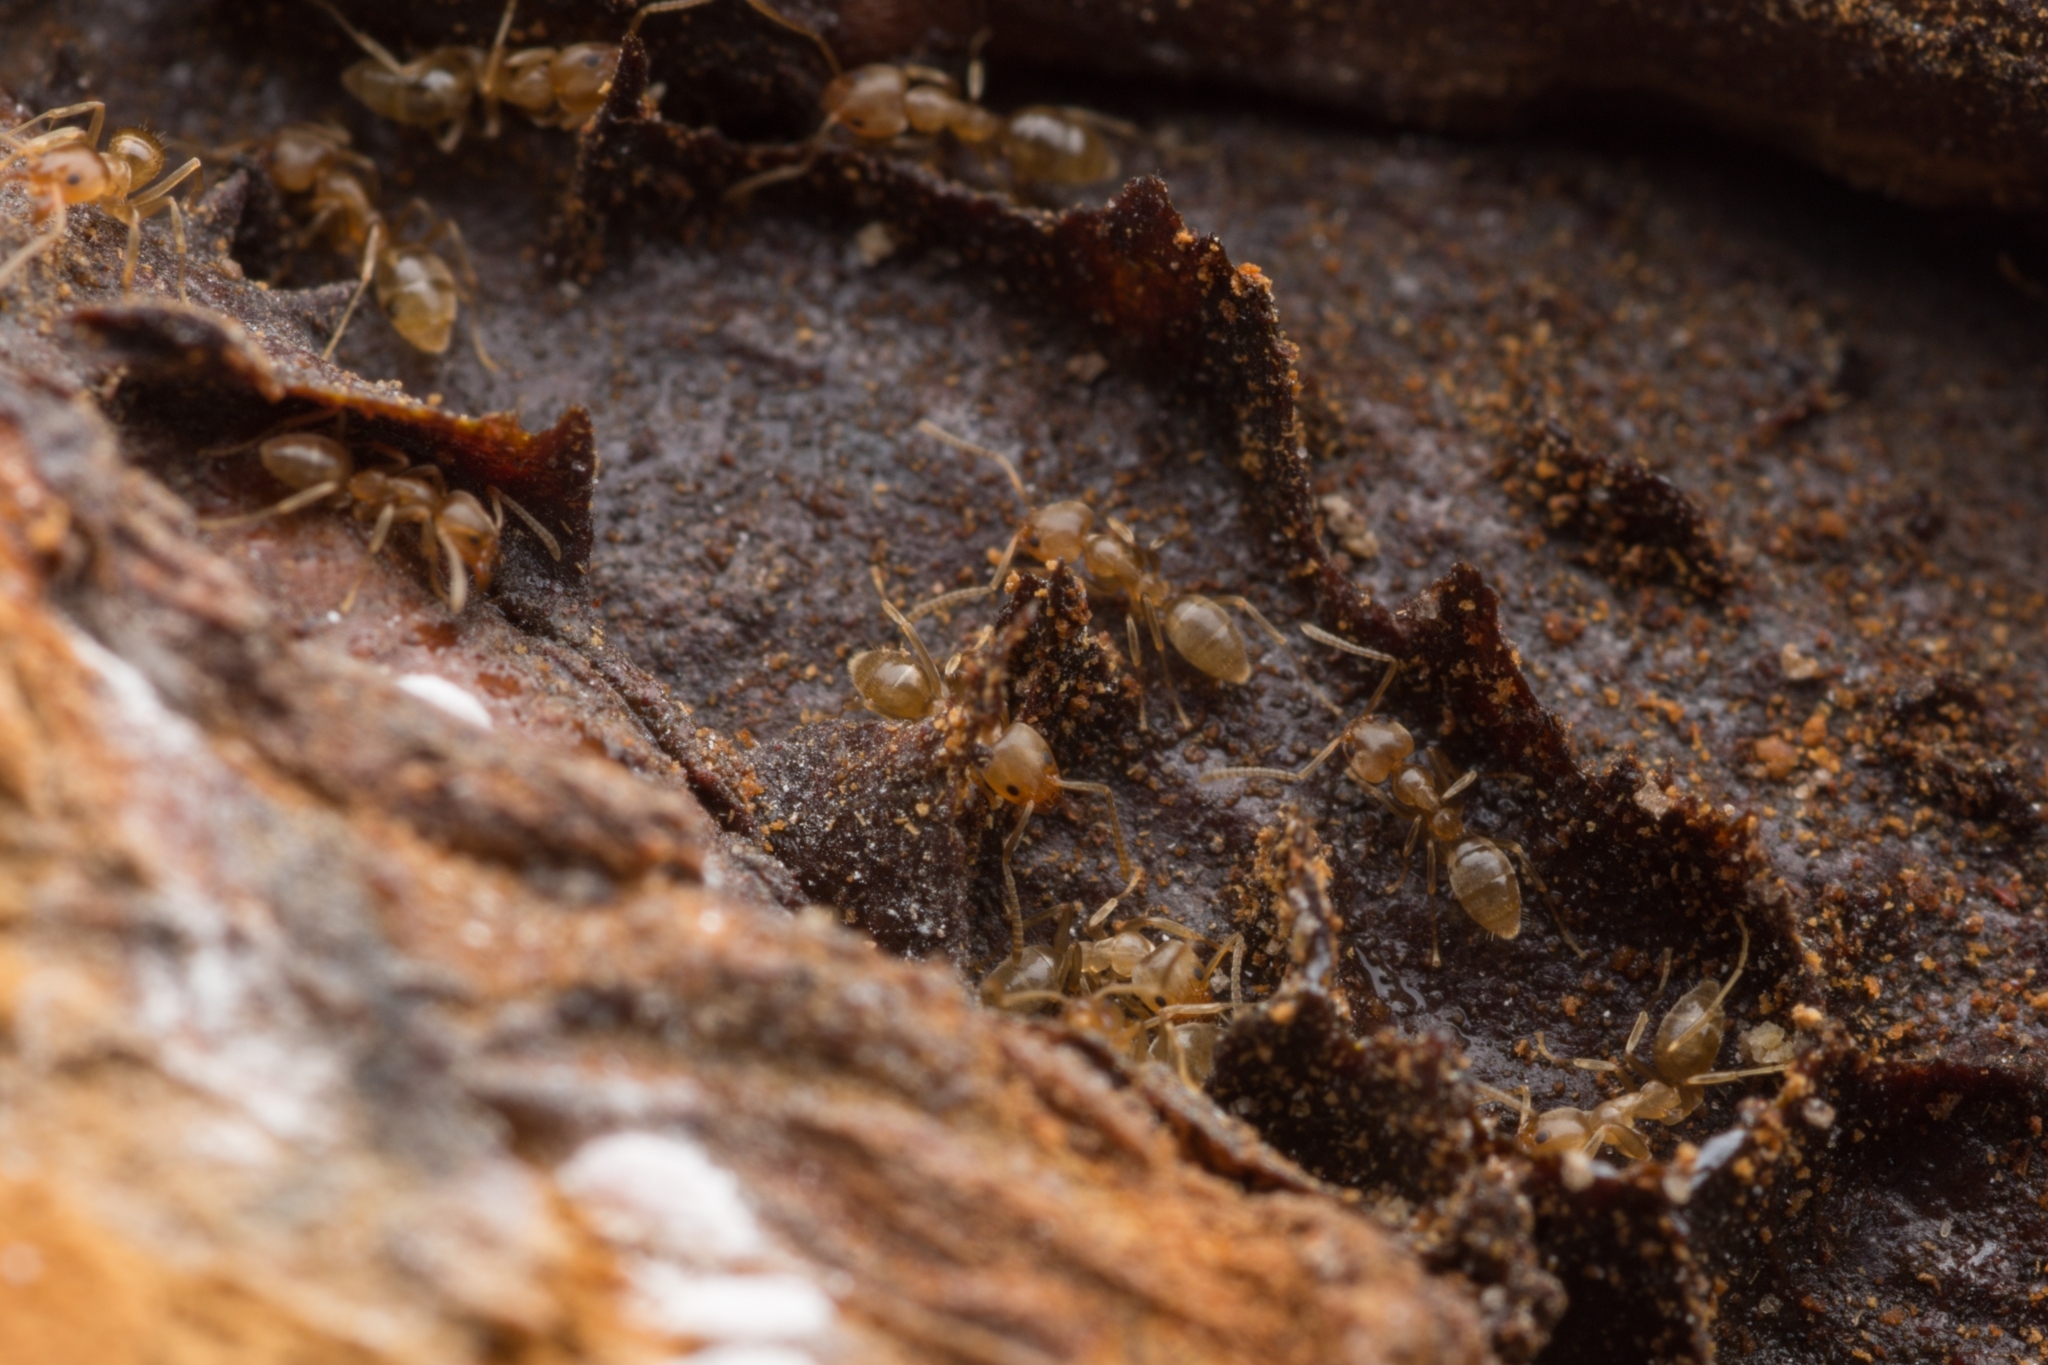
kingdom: Animalia
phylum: Arthropoda
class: Insecta
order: Hymenoptera
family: Formicidae
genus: Linepithema
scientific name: Linepithema angulatum
